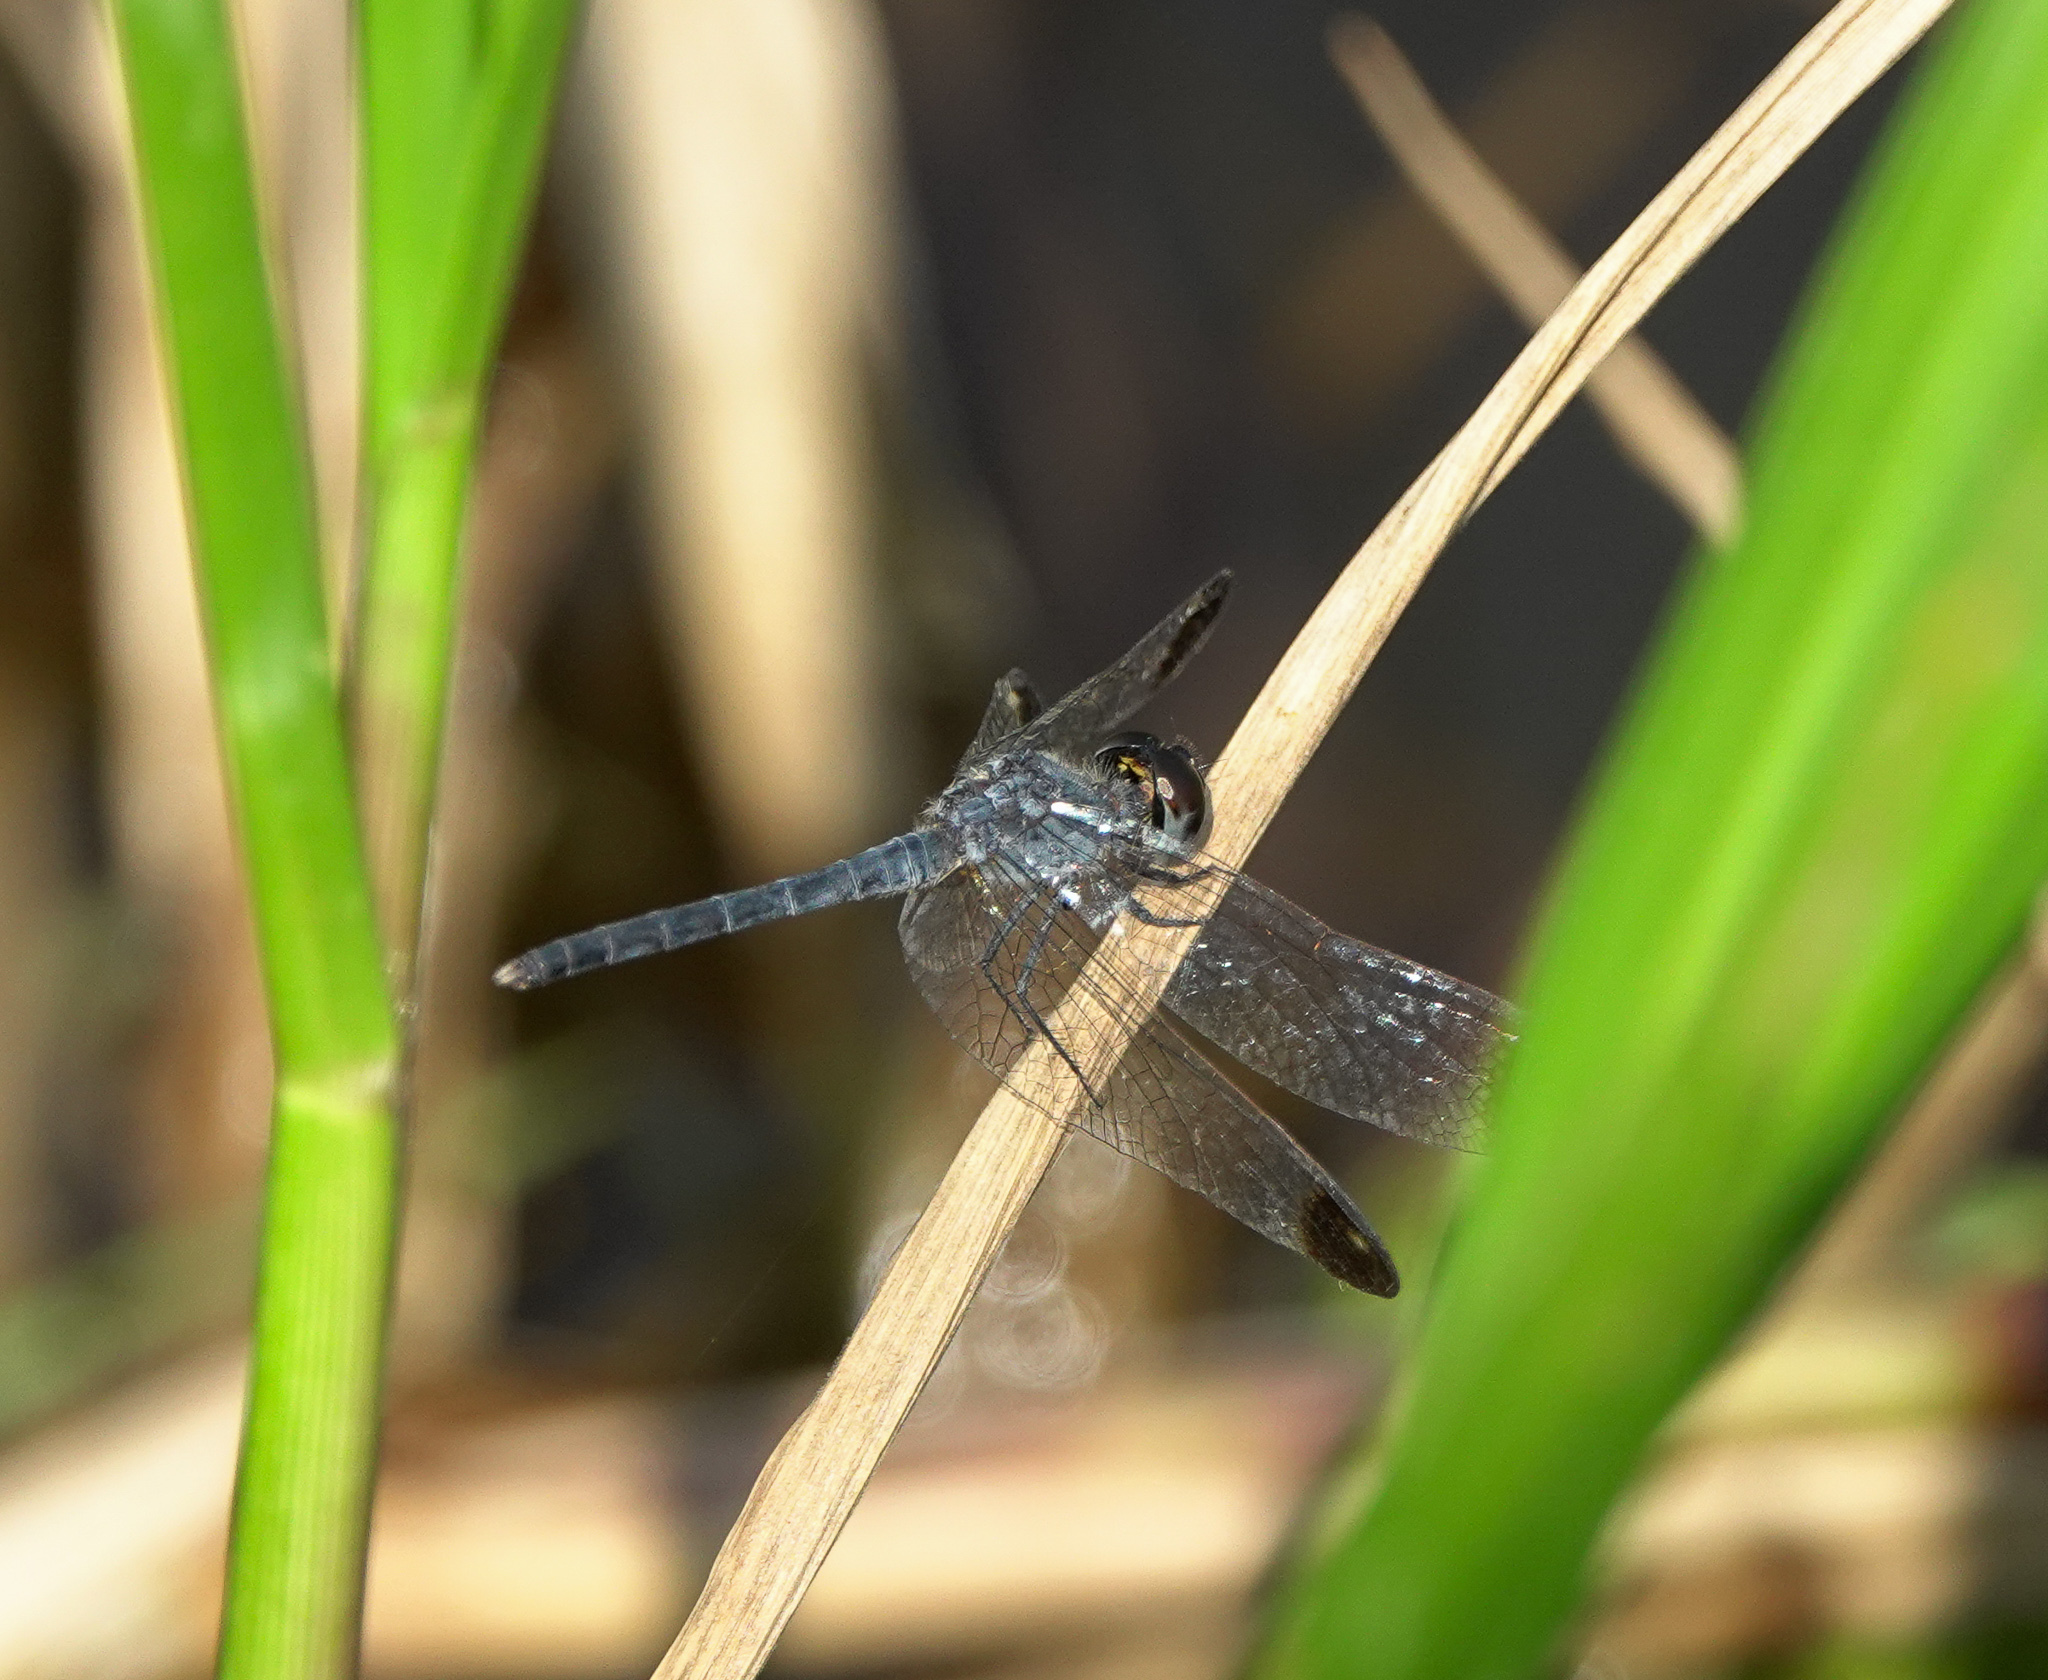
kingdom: Animalia
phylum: Arthropoda
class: Insecta
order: Odonata
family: Libellulidae
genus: Diplacodes
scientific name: Diplacodes nebulosa
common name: Black-tipped percher
